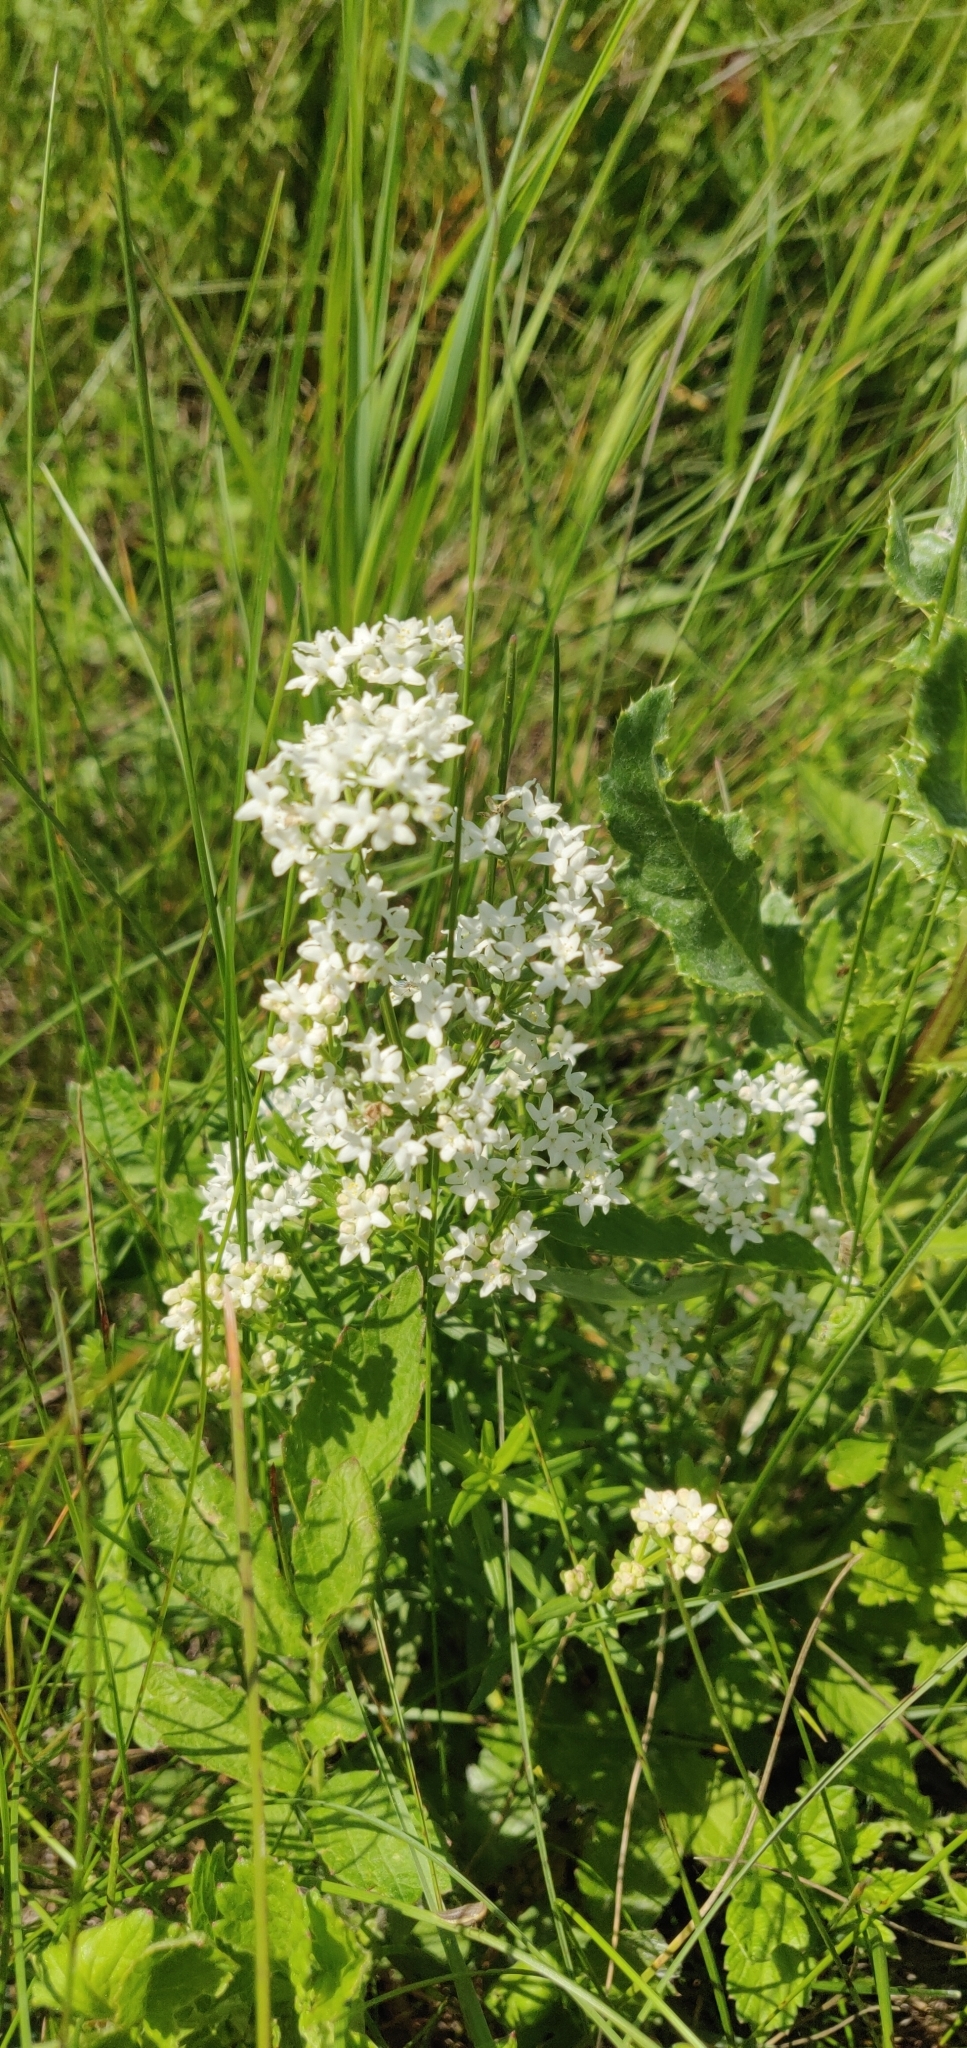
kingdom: Plantae
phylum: Tracheophyta
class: Magnoliopsida
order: Gentianales
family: Rubiaceae
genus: Galium
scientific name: Galium boreale
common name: Northern bedstraw
